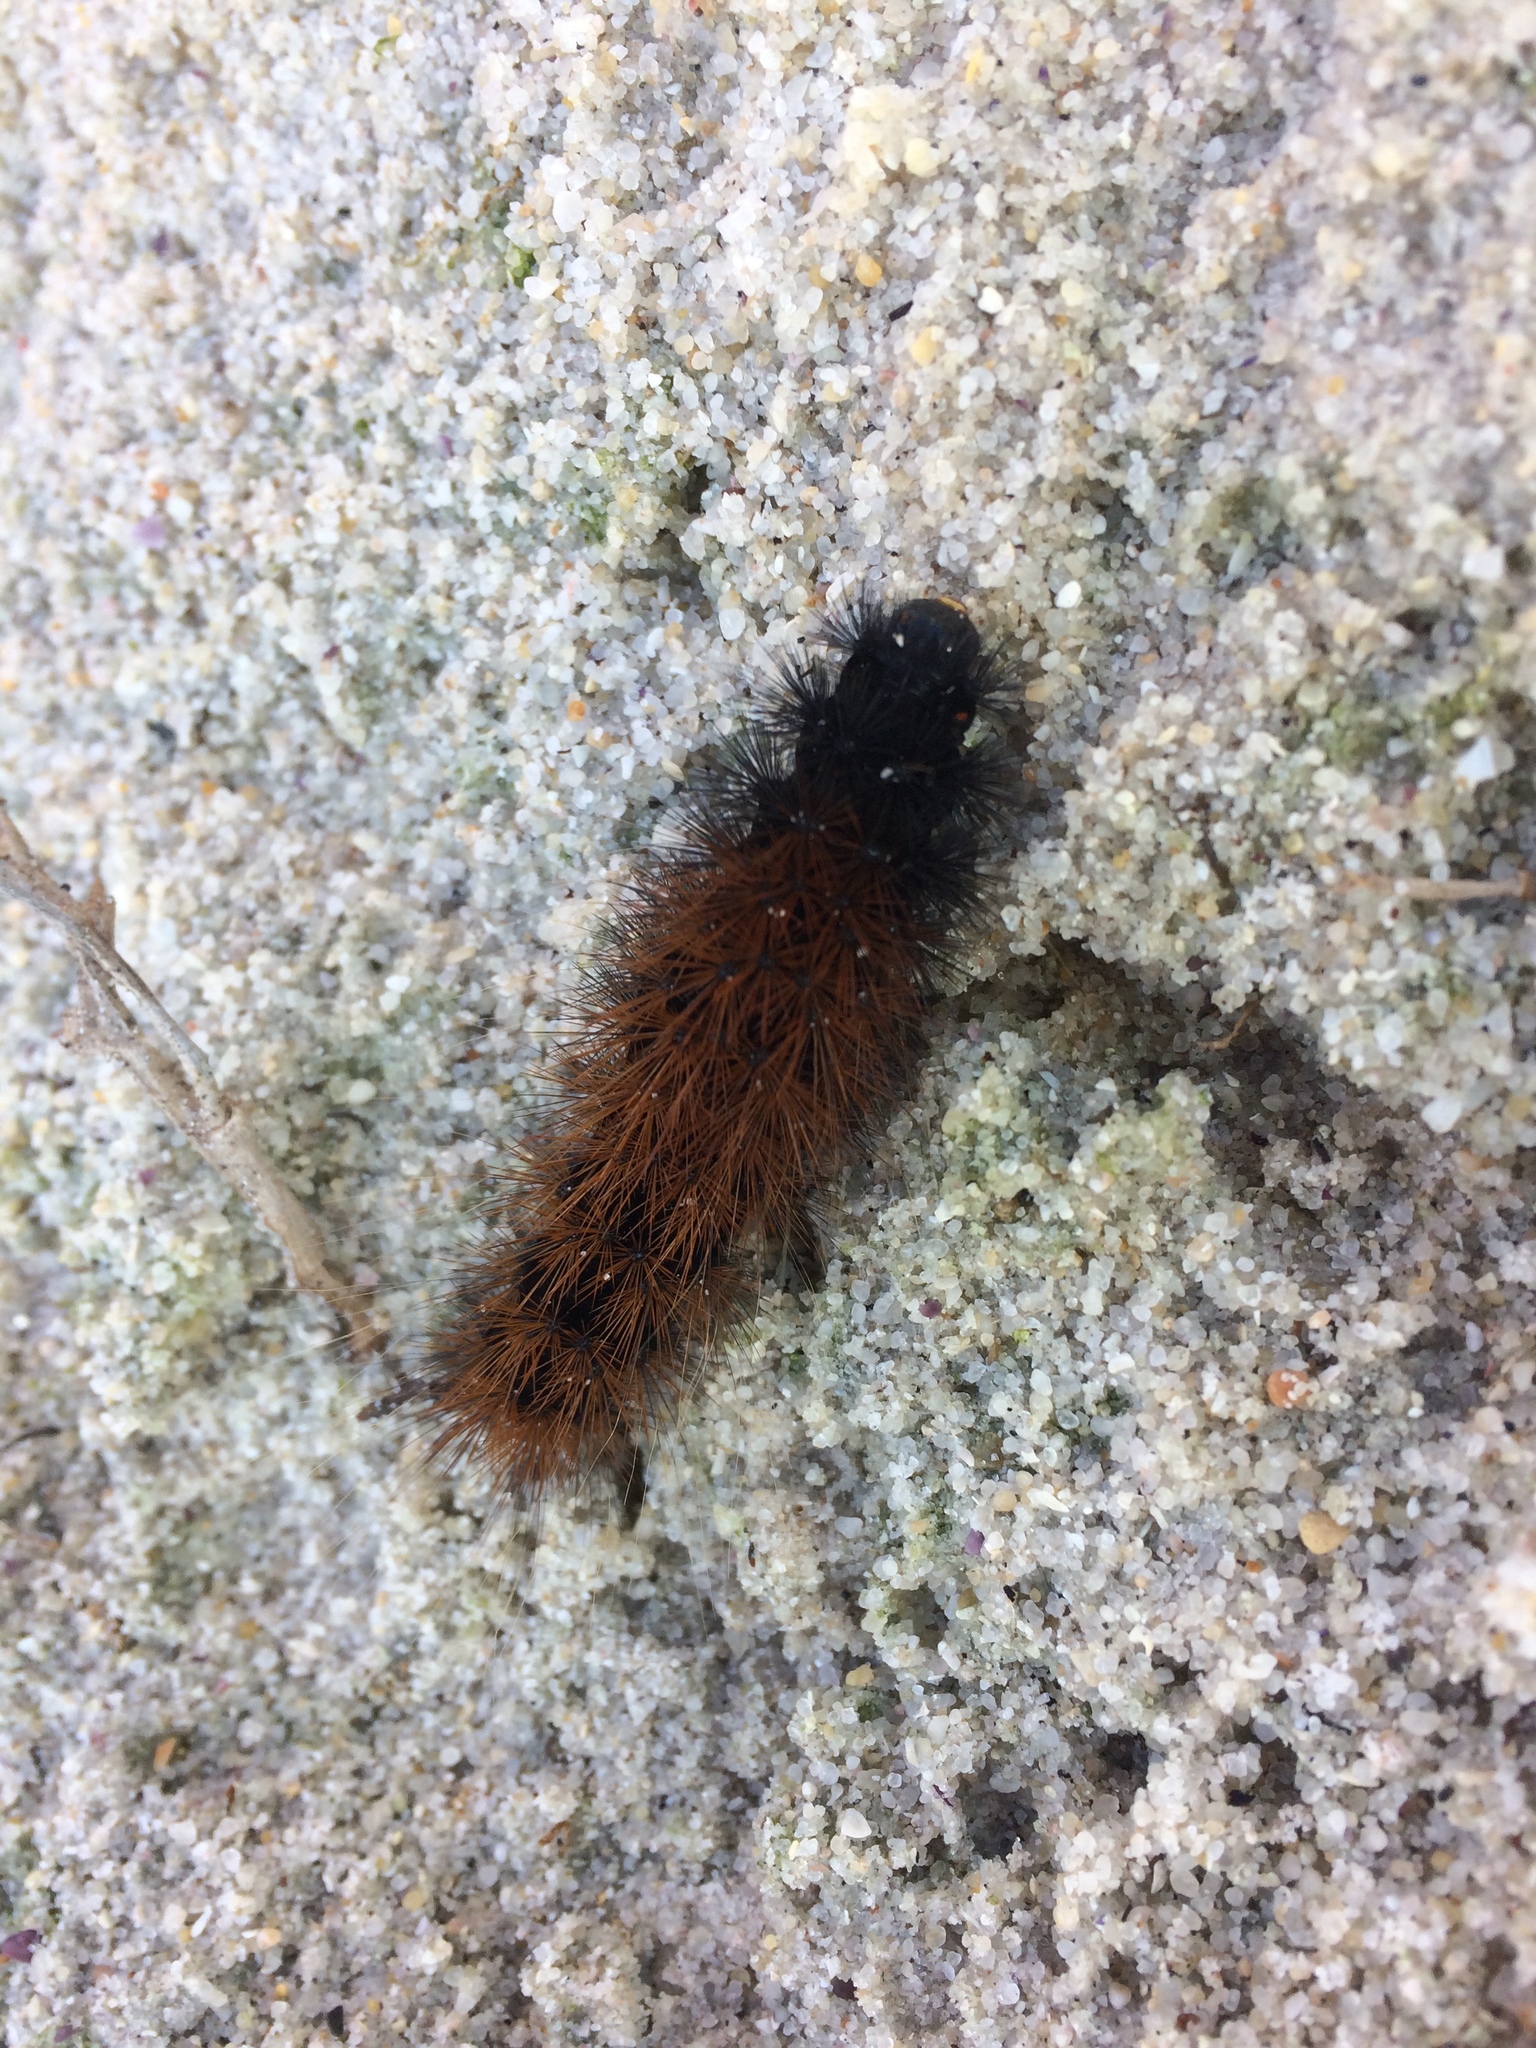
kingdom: Animalia
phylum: Arthropoda
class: Insecta
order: Lepidoptera
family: Erebidae
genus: Rhodogastria
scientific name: Rhodogastria amasis
